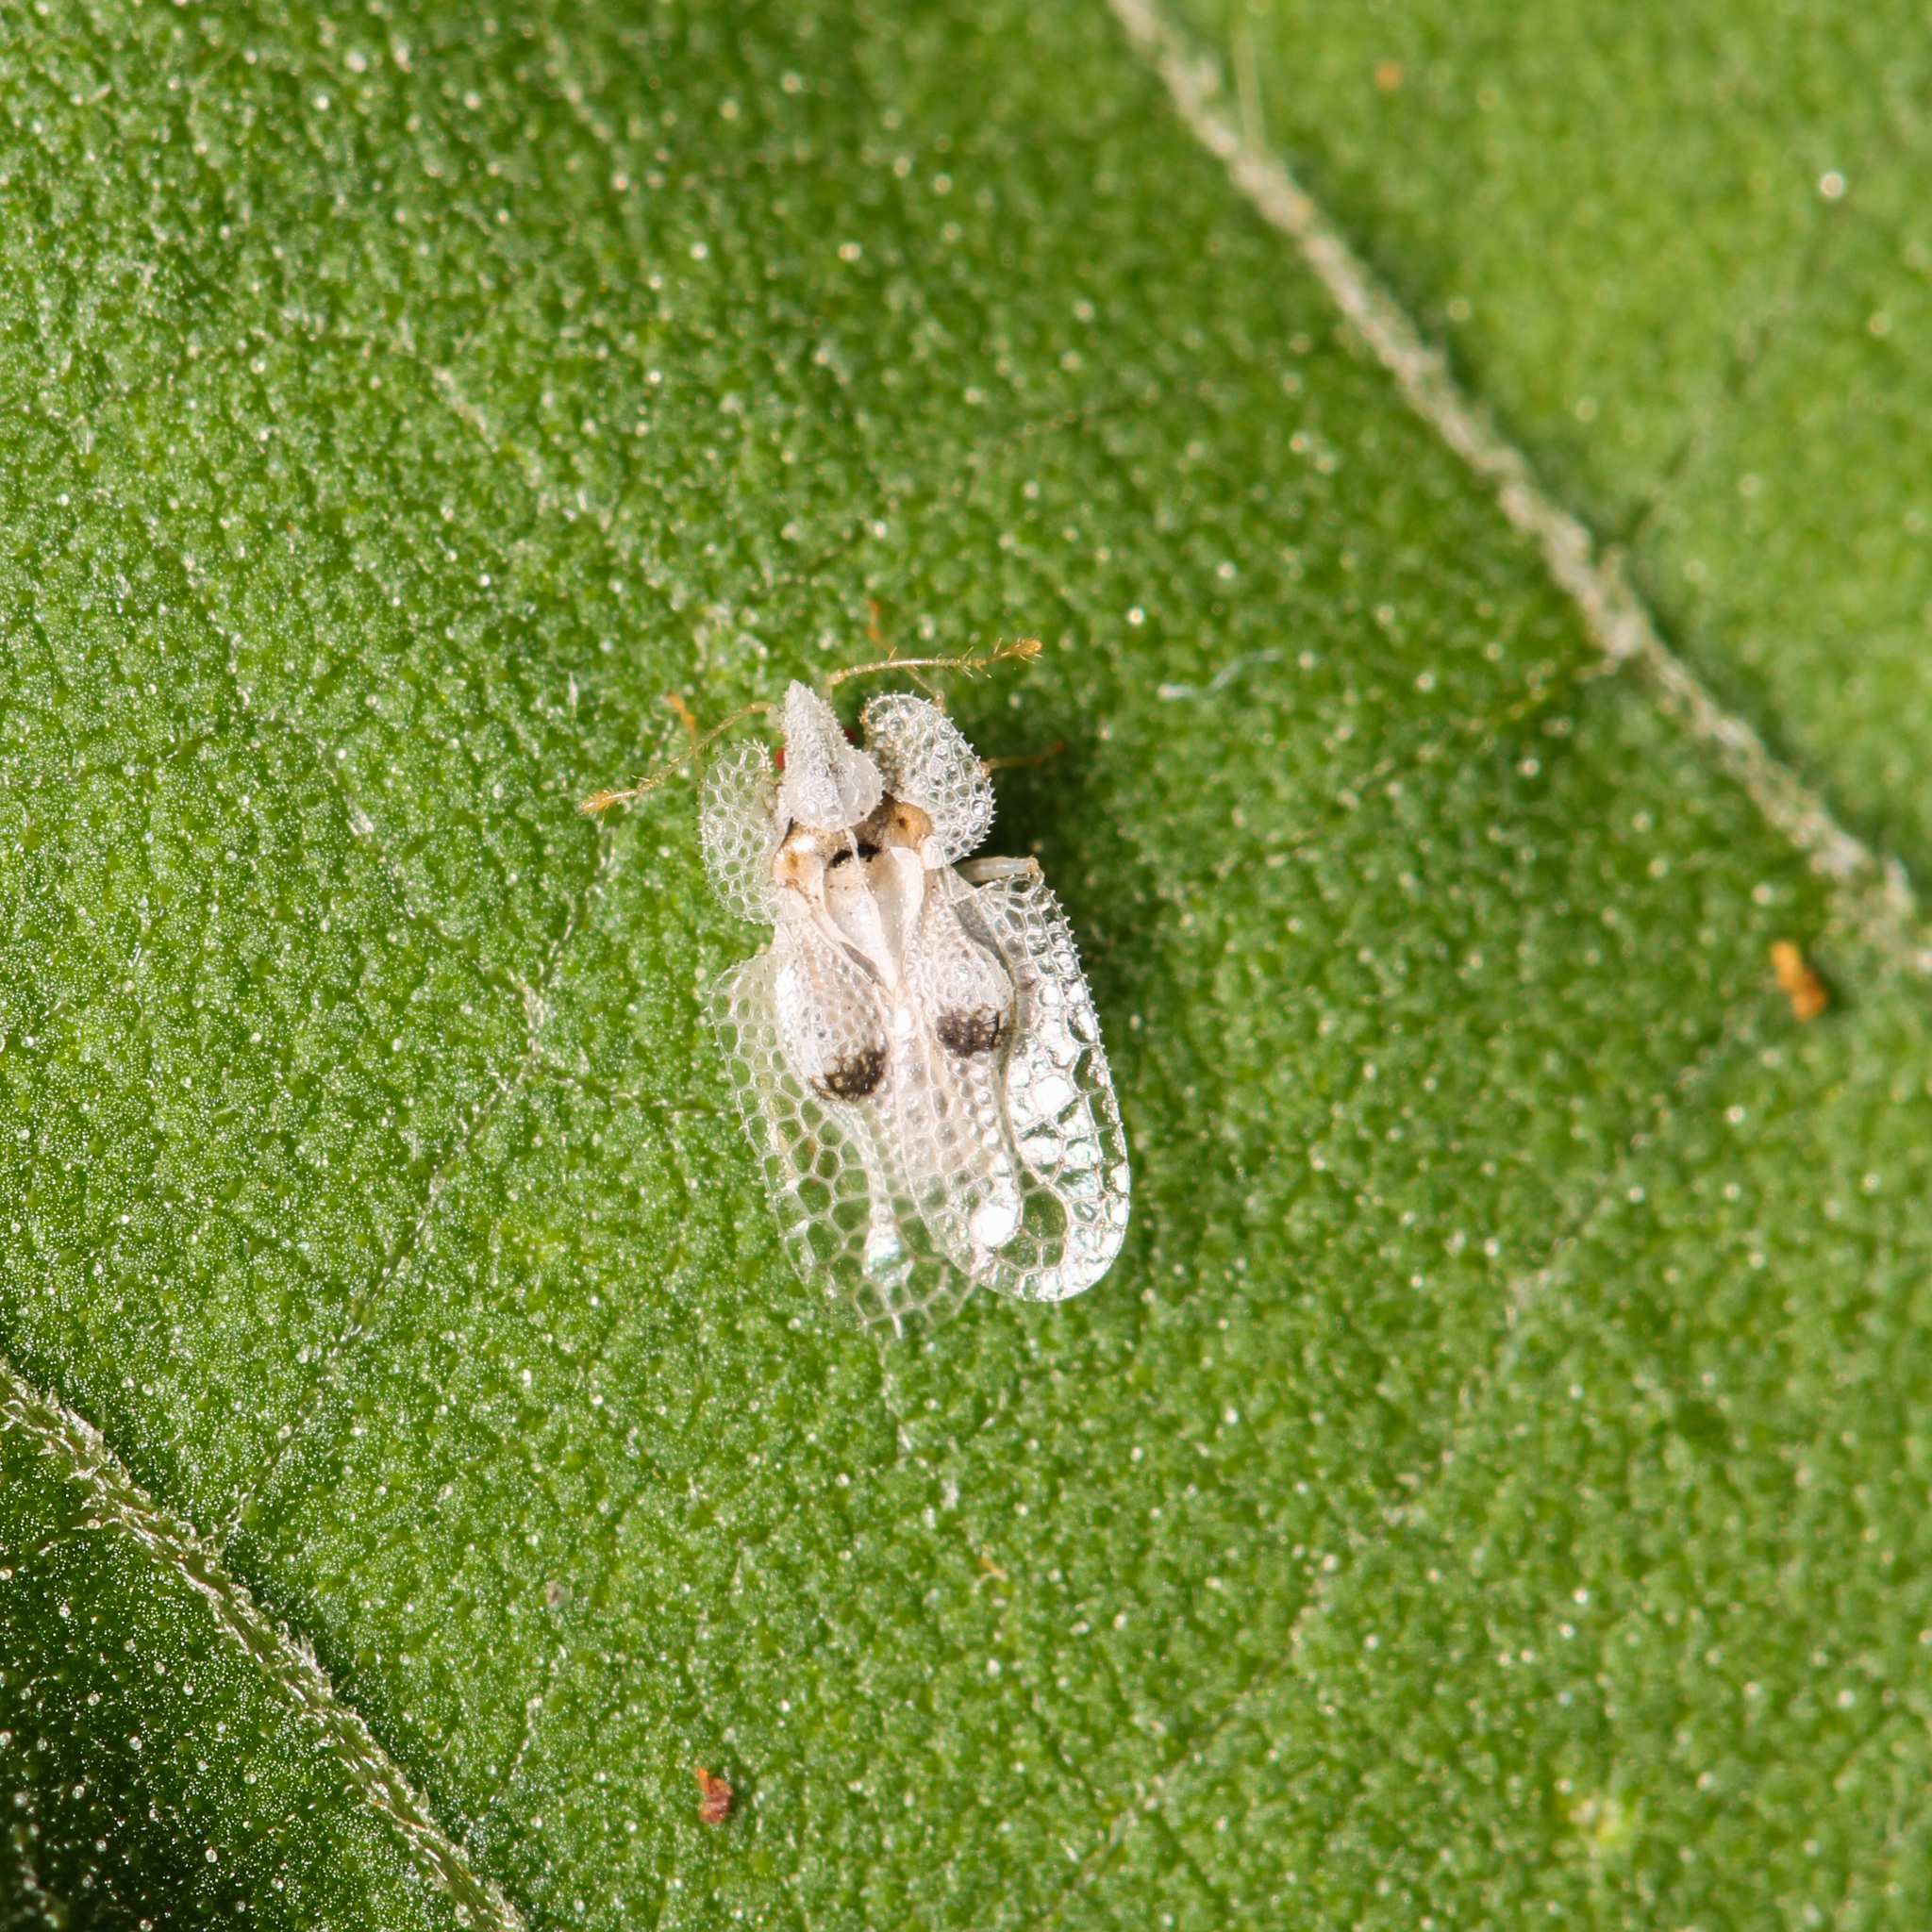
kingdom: Animalia
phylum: Arthropoda
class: Insecta
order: Hemiptera
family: Tingidae
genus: Corythucha
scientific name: Corythucha ciliata
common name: Sycamore lace bug
